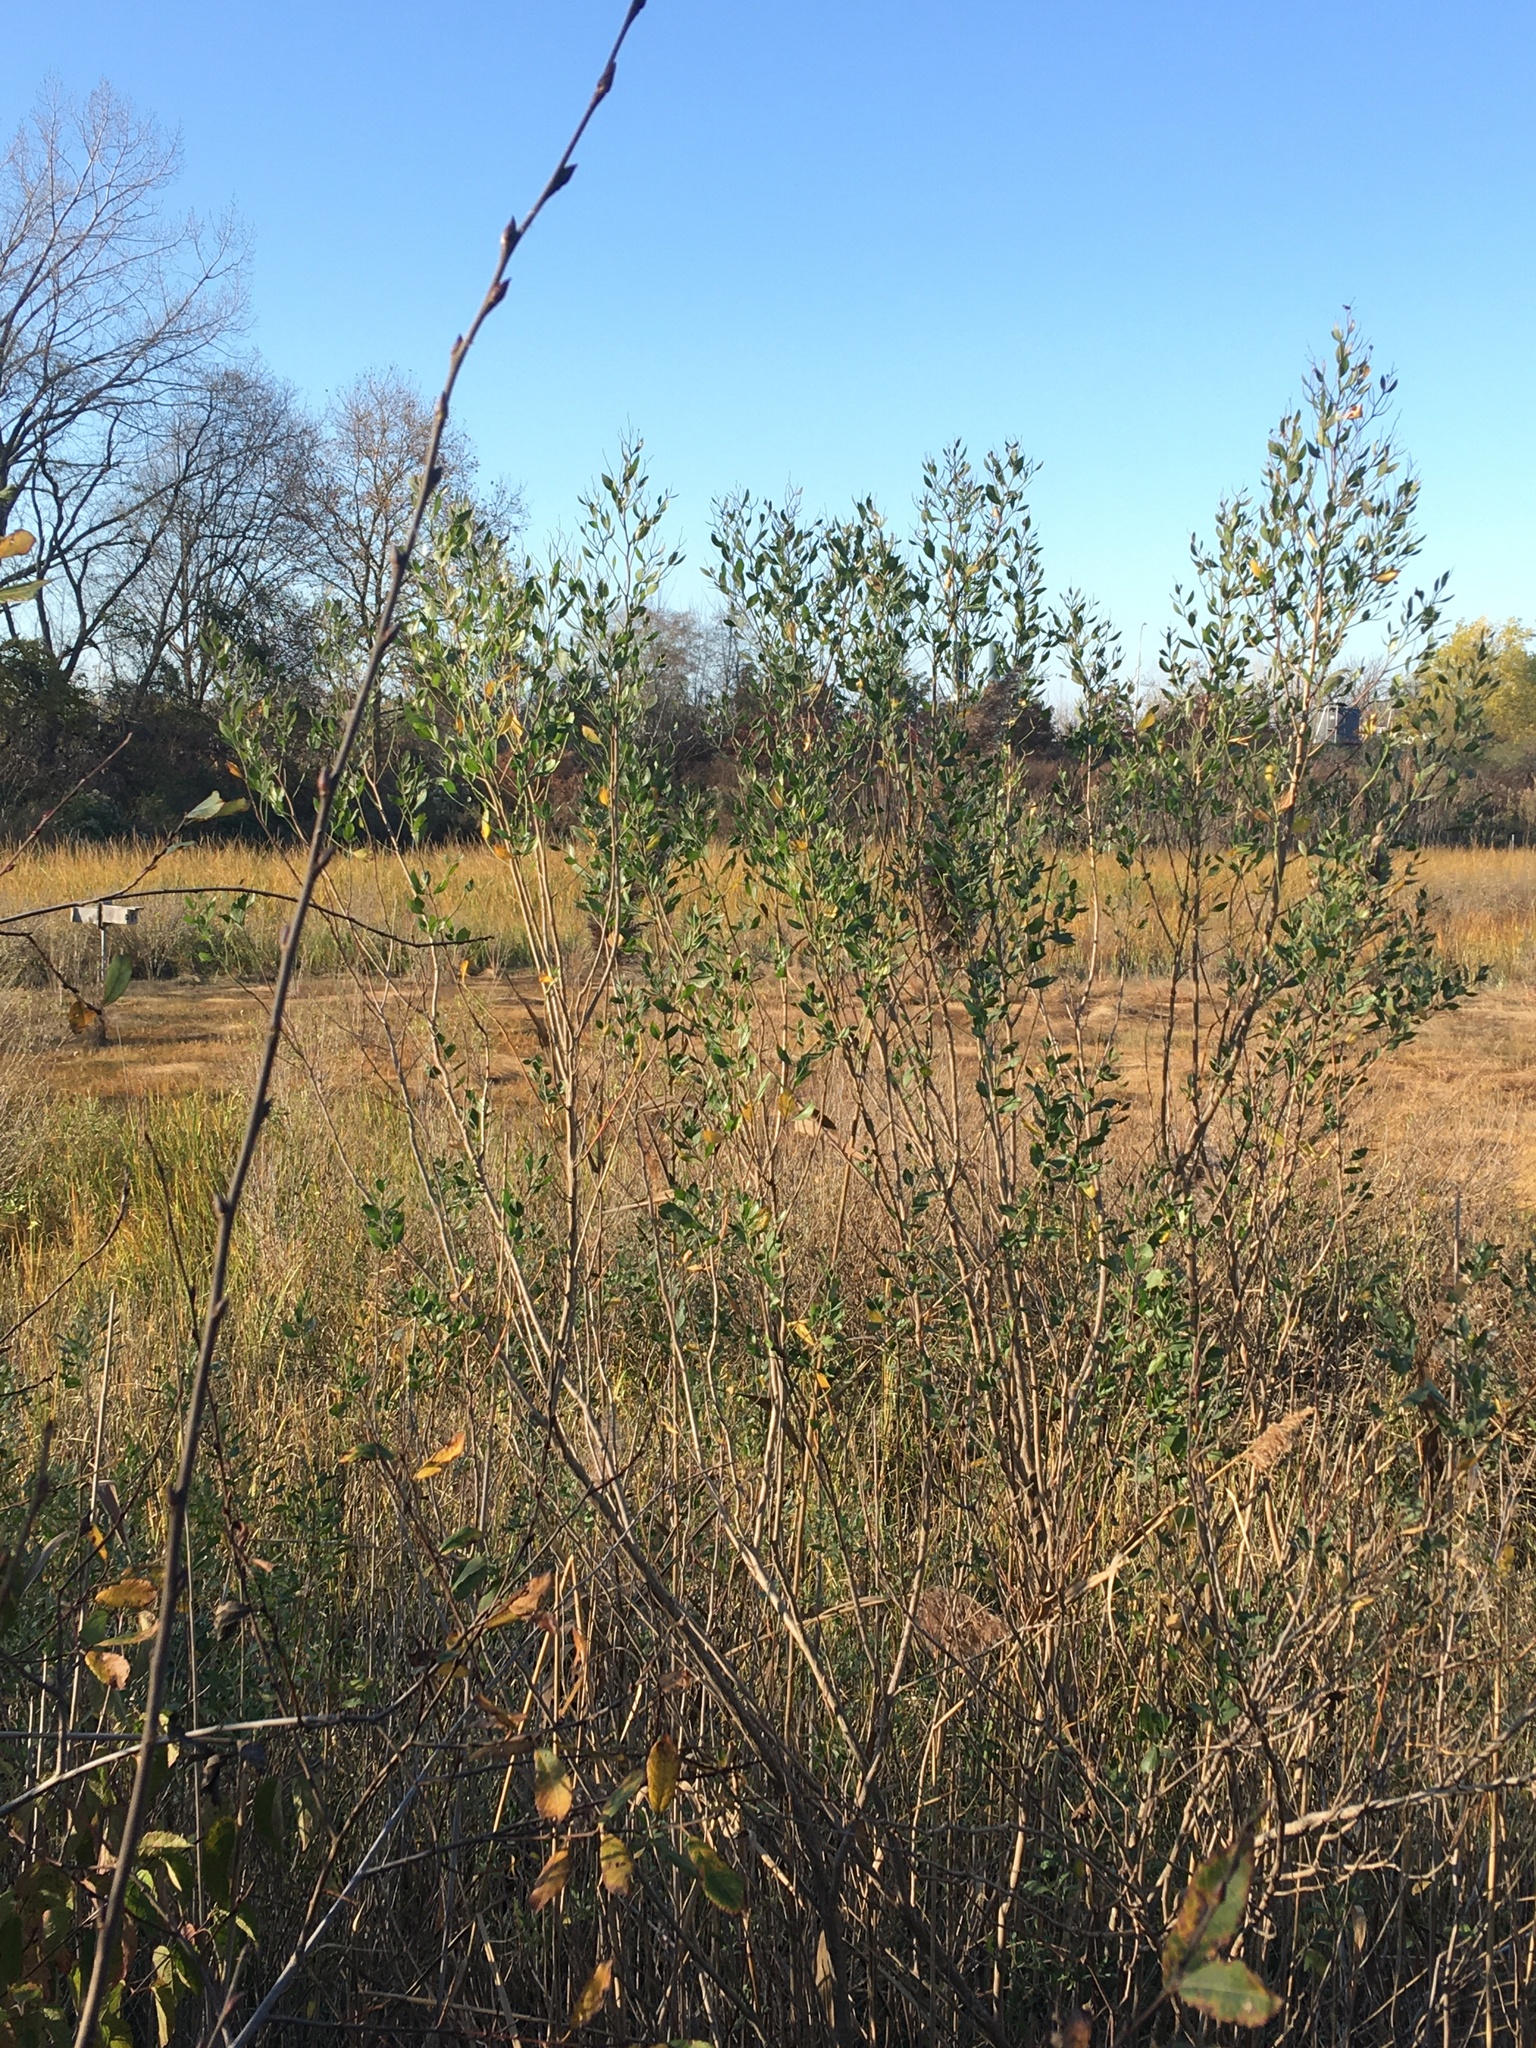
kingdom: Plantae
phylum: Tracheophyta
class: Magnoliopsida
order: Asterales
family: Asteraceae
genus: Baccharis
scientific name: Baccharis halimifolia
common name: Eastern baccharis
